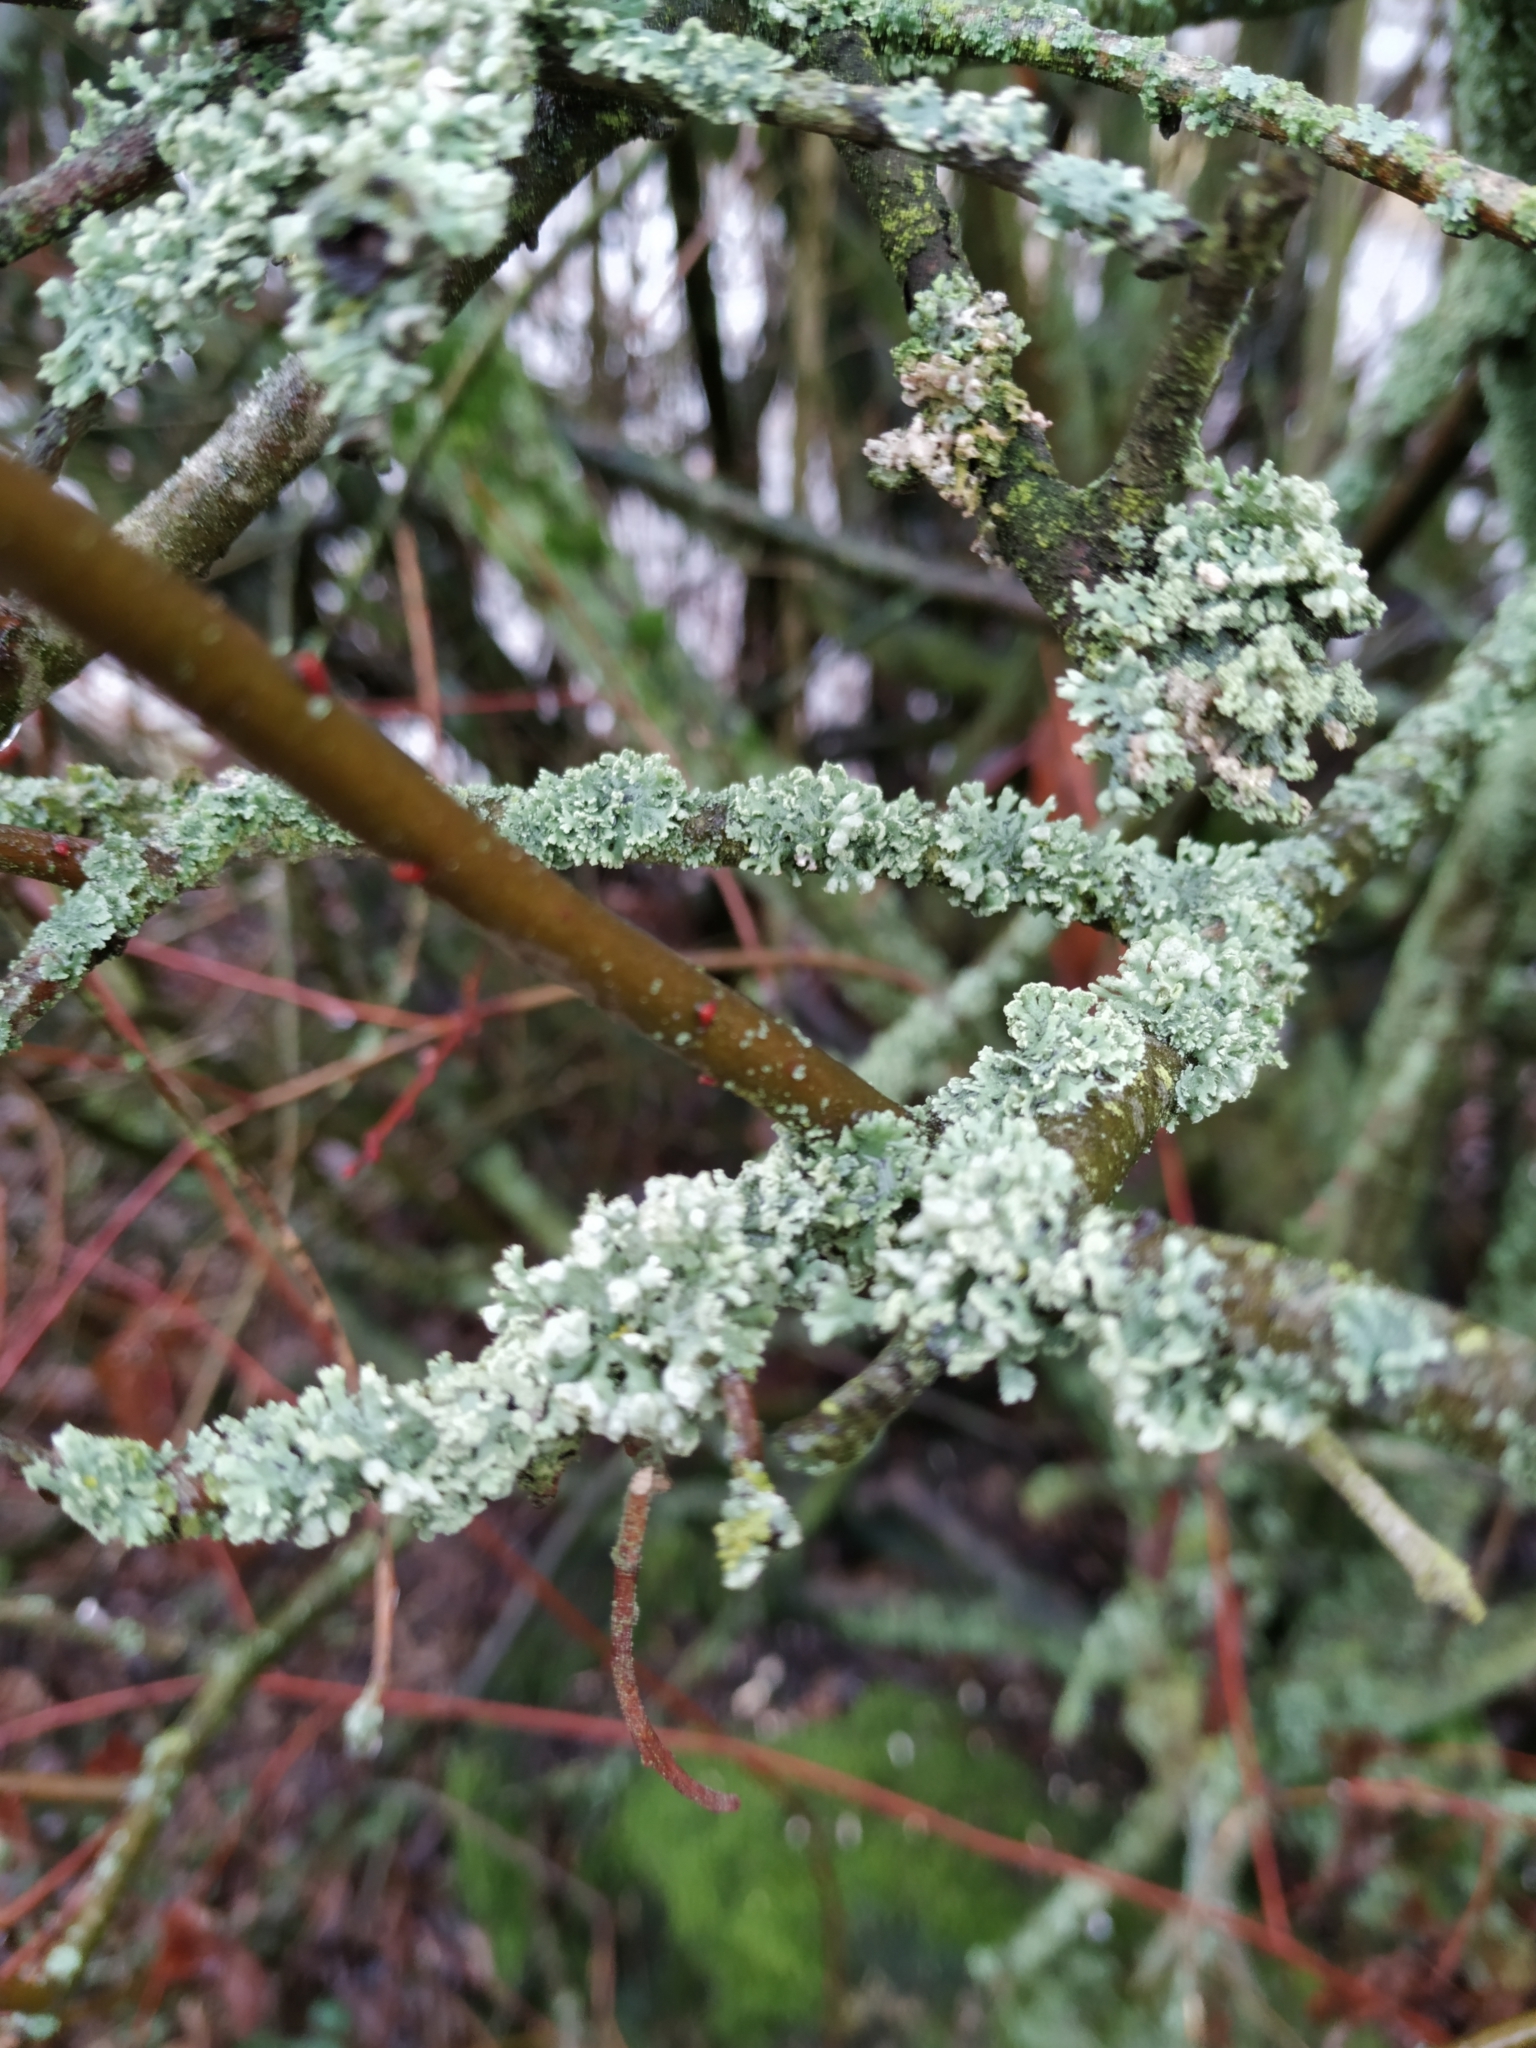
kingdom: Fungi
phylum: Ascomycota
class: Lecanoromycetes
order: Caliciales
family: Physciaceae
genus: Physcia
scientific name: Physcia adscendens
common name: Hooded rosette lichen
